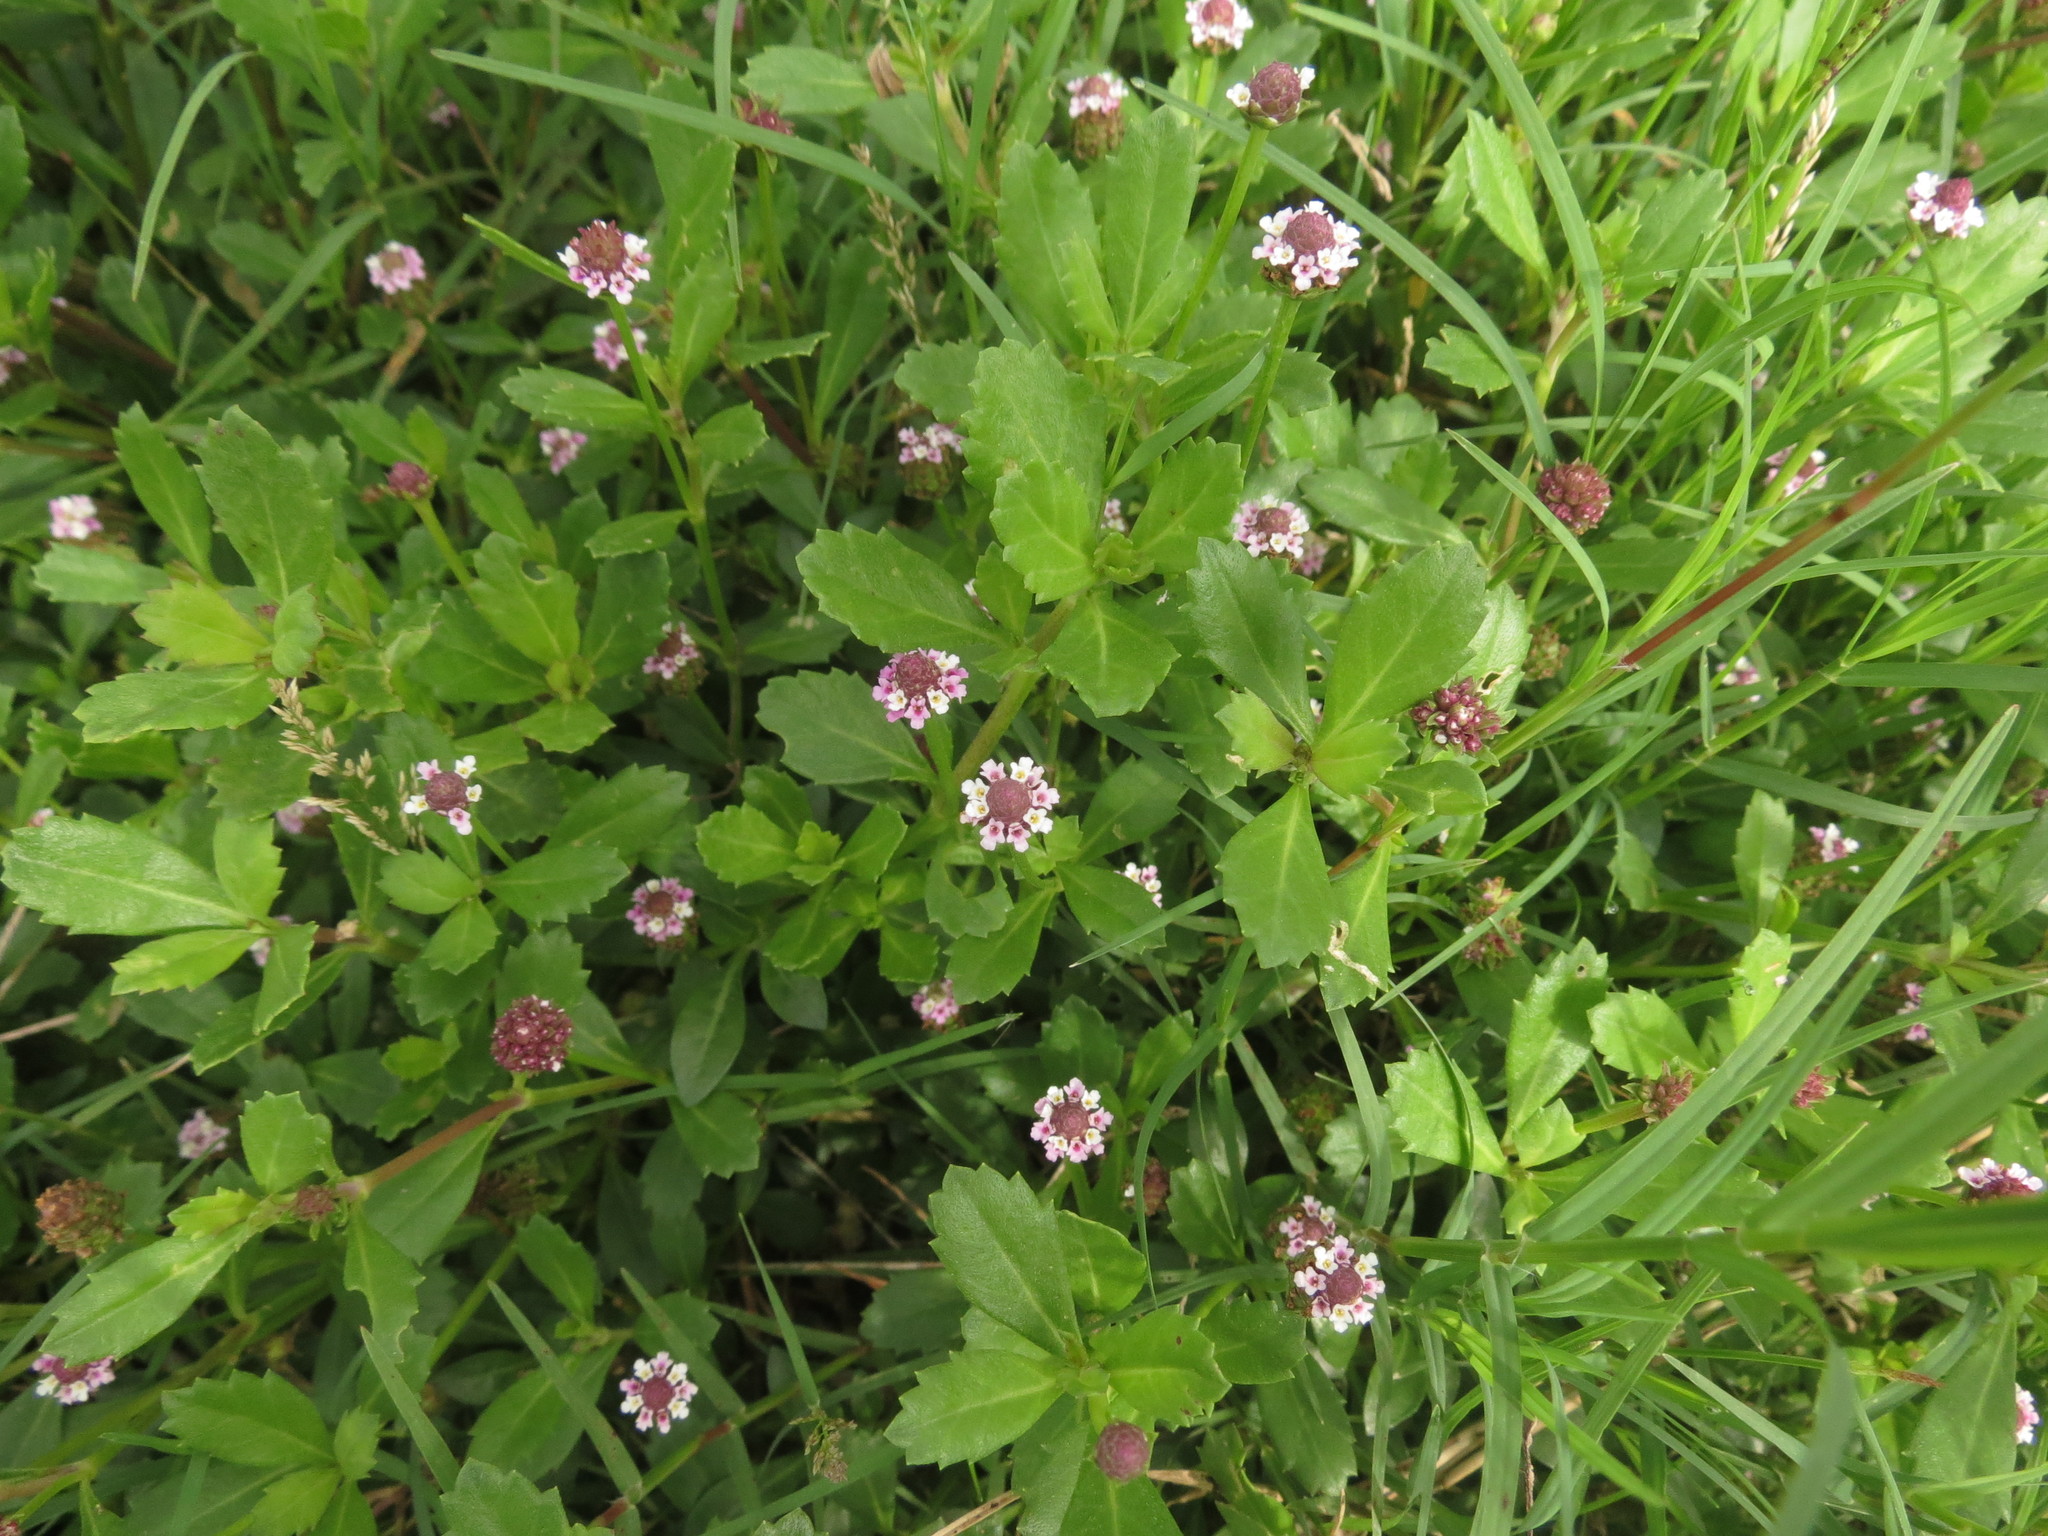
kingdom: Plantae
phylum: Tracheophyta
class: Magnoliopsida
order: Lamiales
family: Verbenaceae
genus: Phyla
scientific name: Phyla nodiflora
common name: Frogfruit
